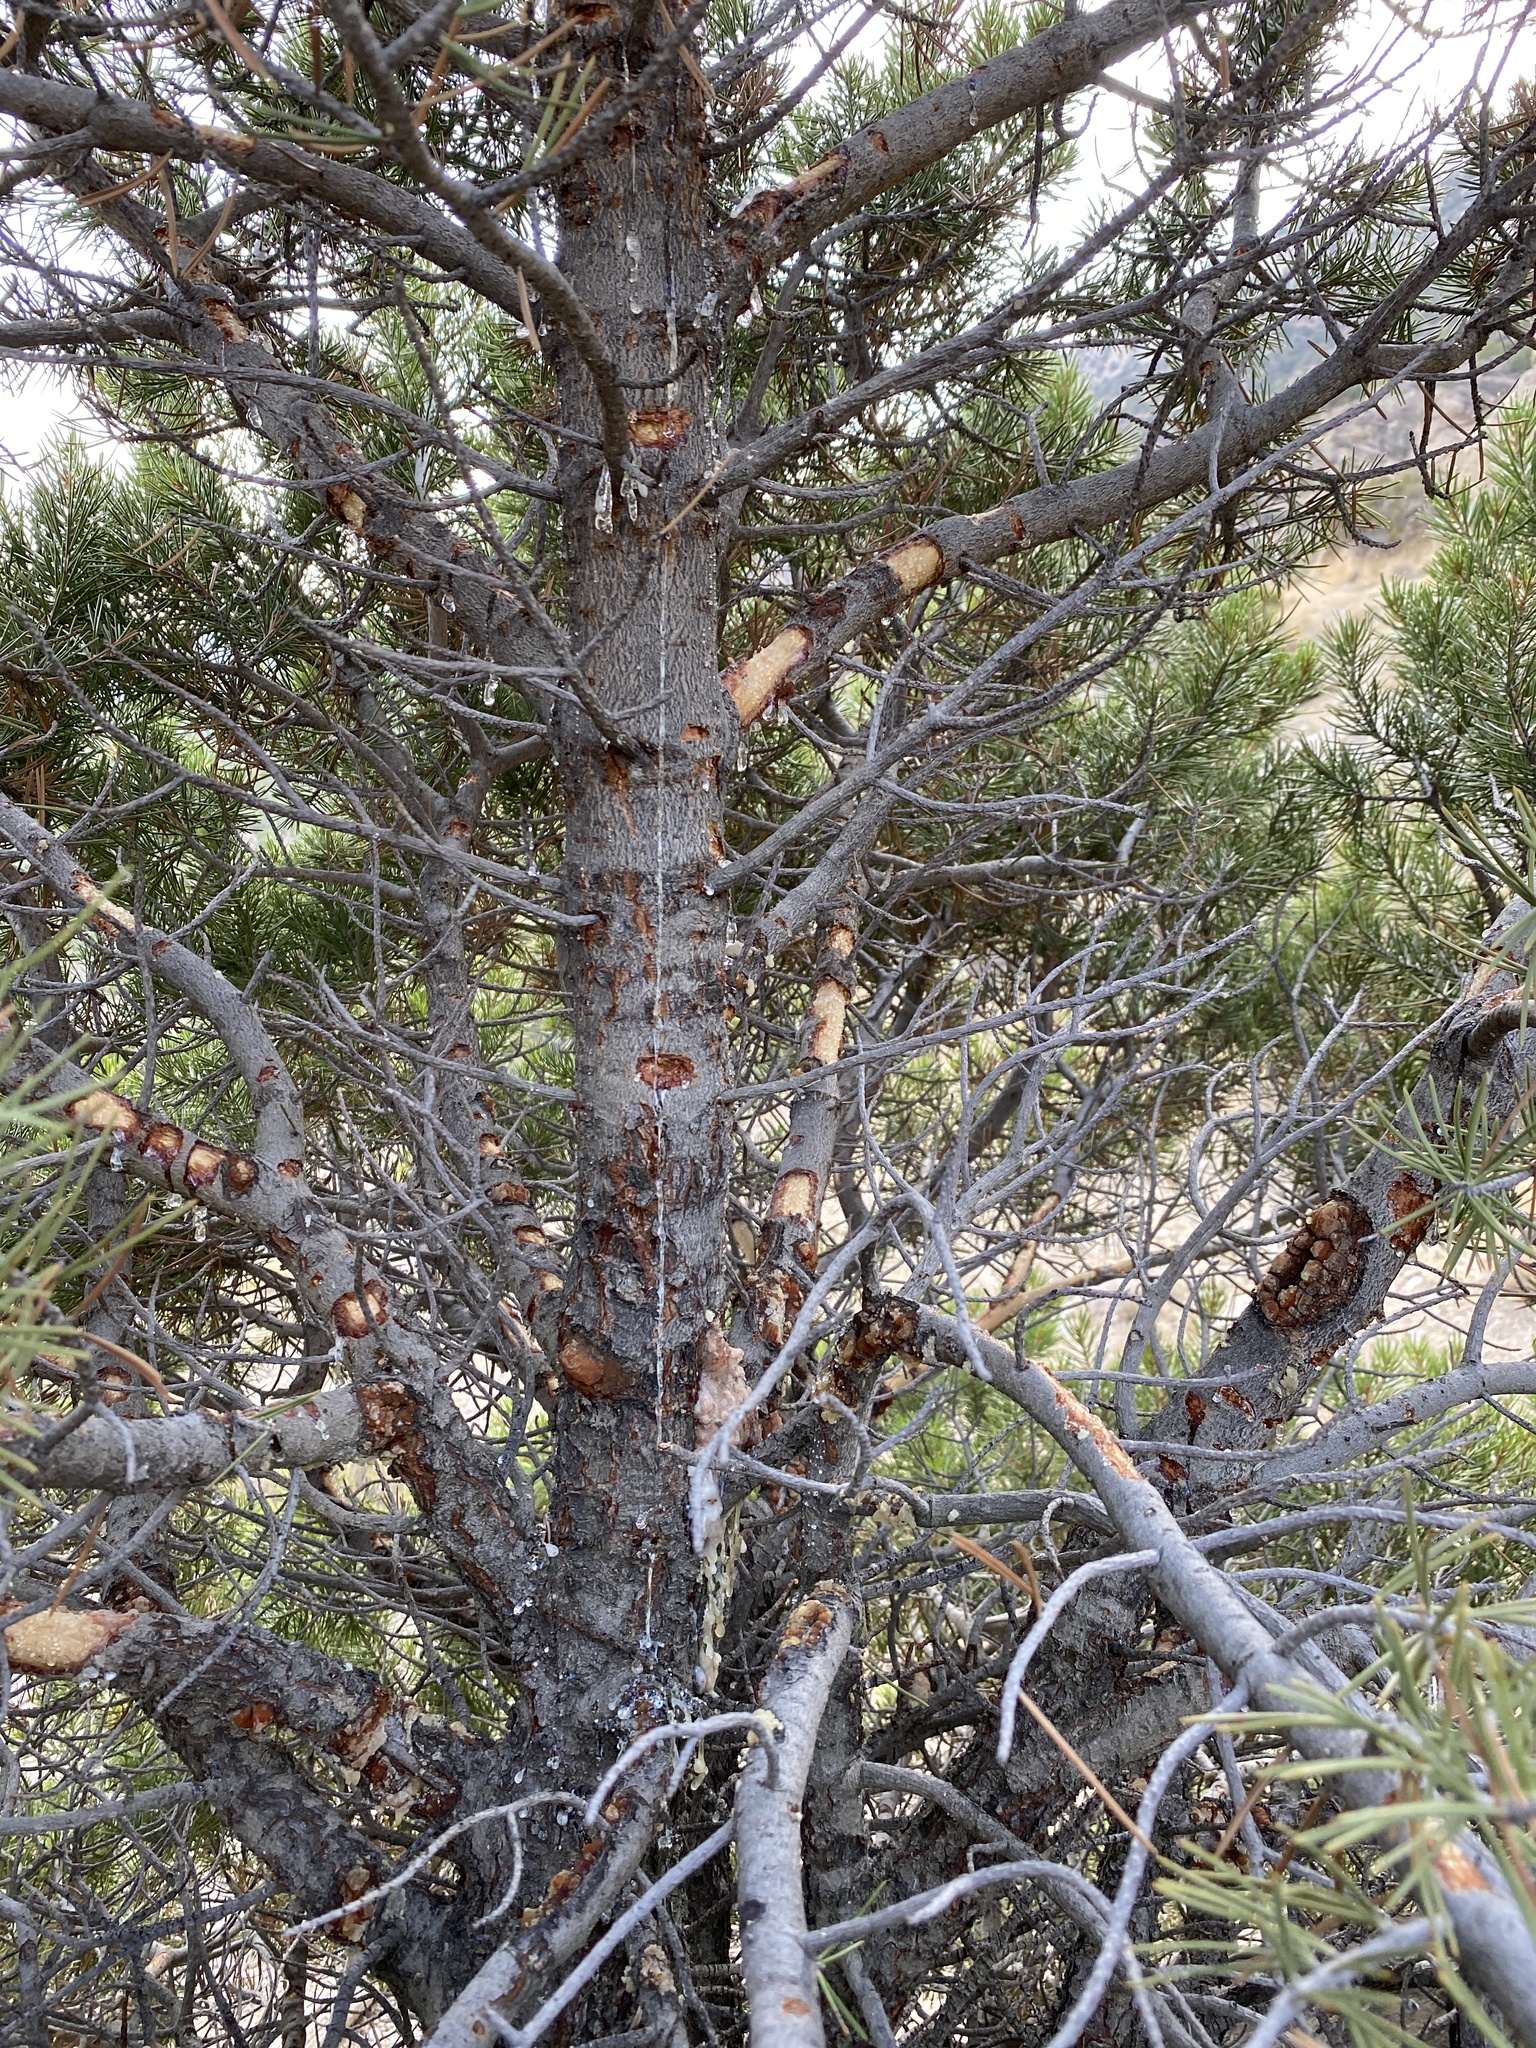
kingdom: Plantae
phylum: Tracheophyta
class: Pinopsida
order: Pinales
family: Pinaceae
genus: Pinus
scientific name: Pinus edulis
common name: Colorado pinyon
